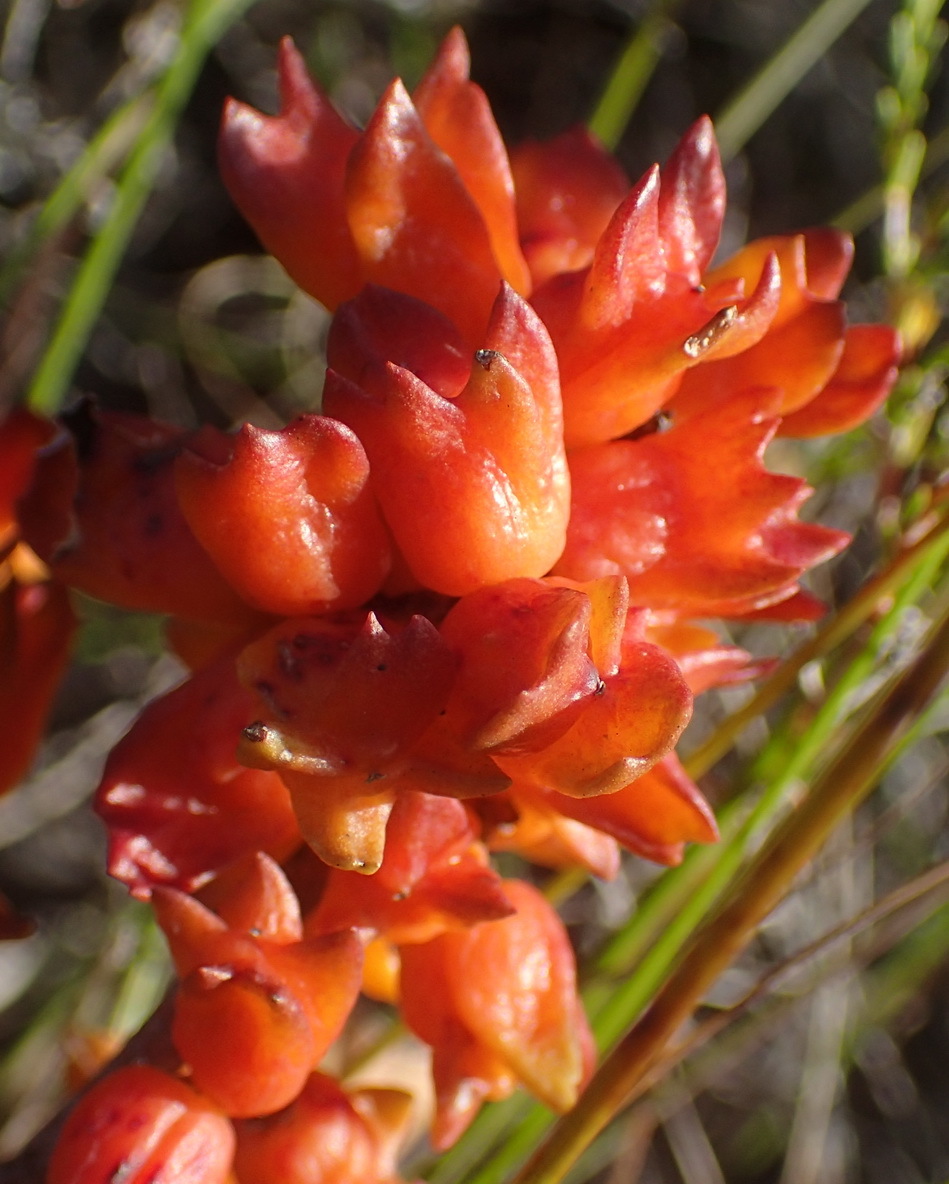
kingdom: Plantae
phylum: Tracheophyta
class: Magnoliopsida
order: Celastrales
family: Celastraceae
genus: Pterocelastrus
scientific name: Pterocelastrus tricuspidatus
